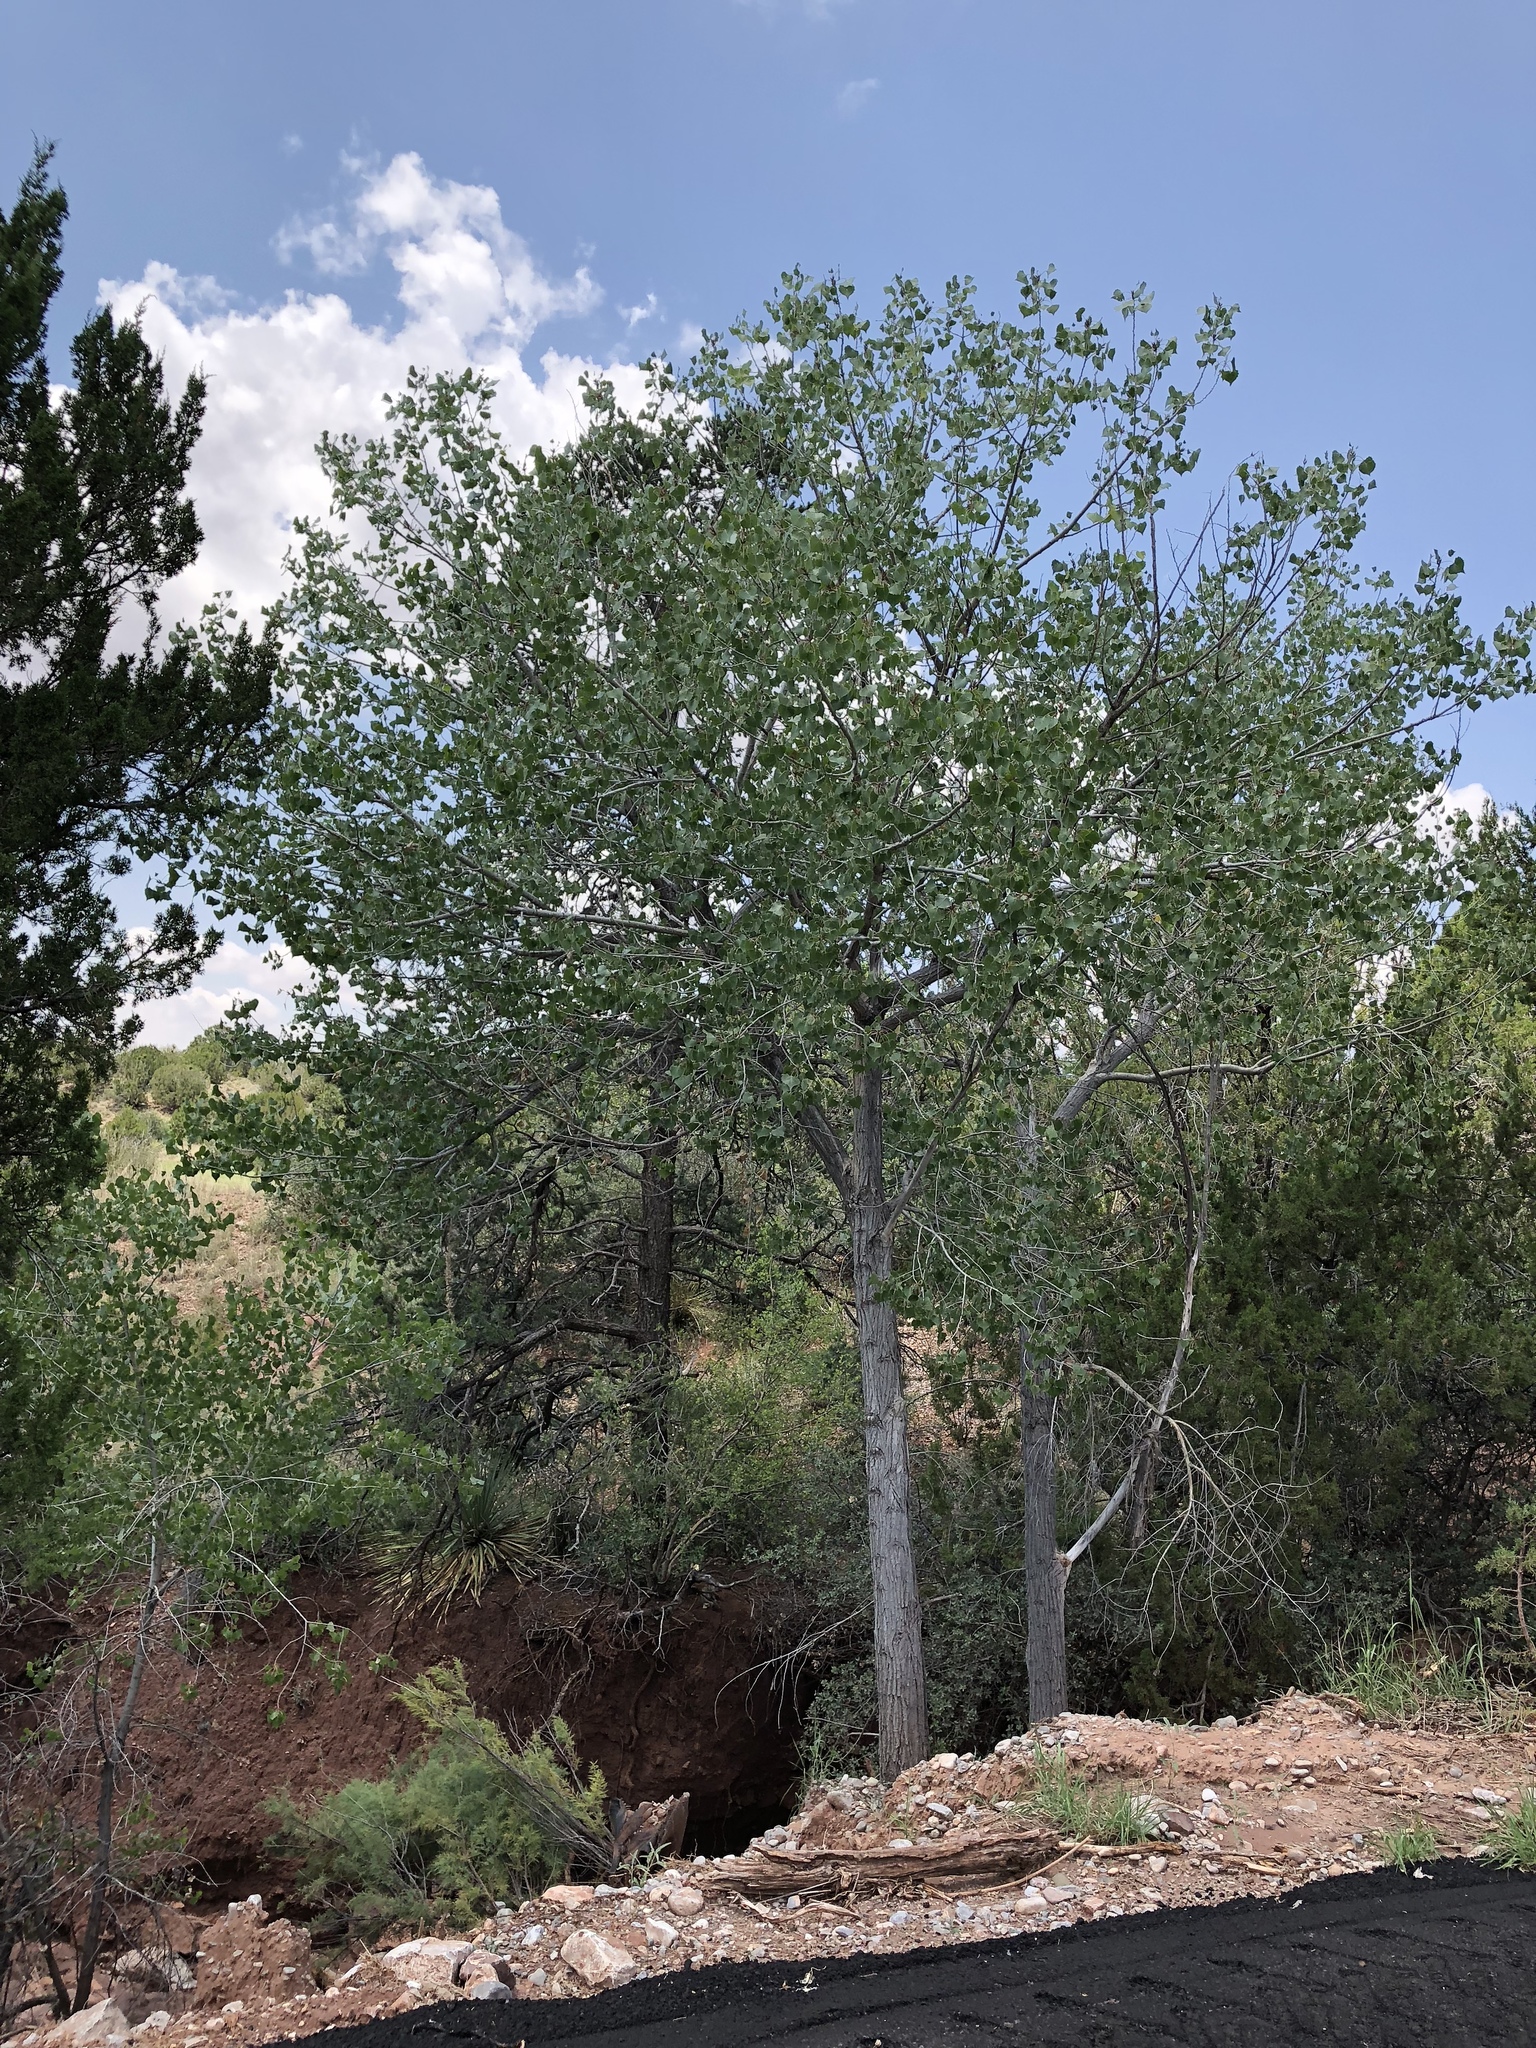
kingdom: Plantae
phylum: Tracheophyta
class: Magnoliopsida
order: Malpighiales
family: Salicaceae
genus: Populus
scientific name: Populus fremontii
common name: Fremont's cottonwood
